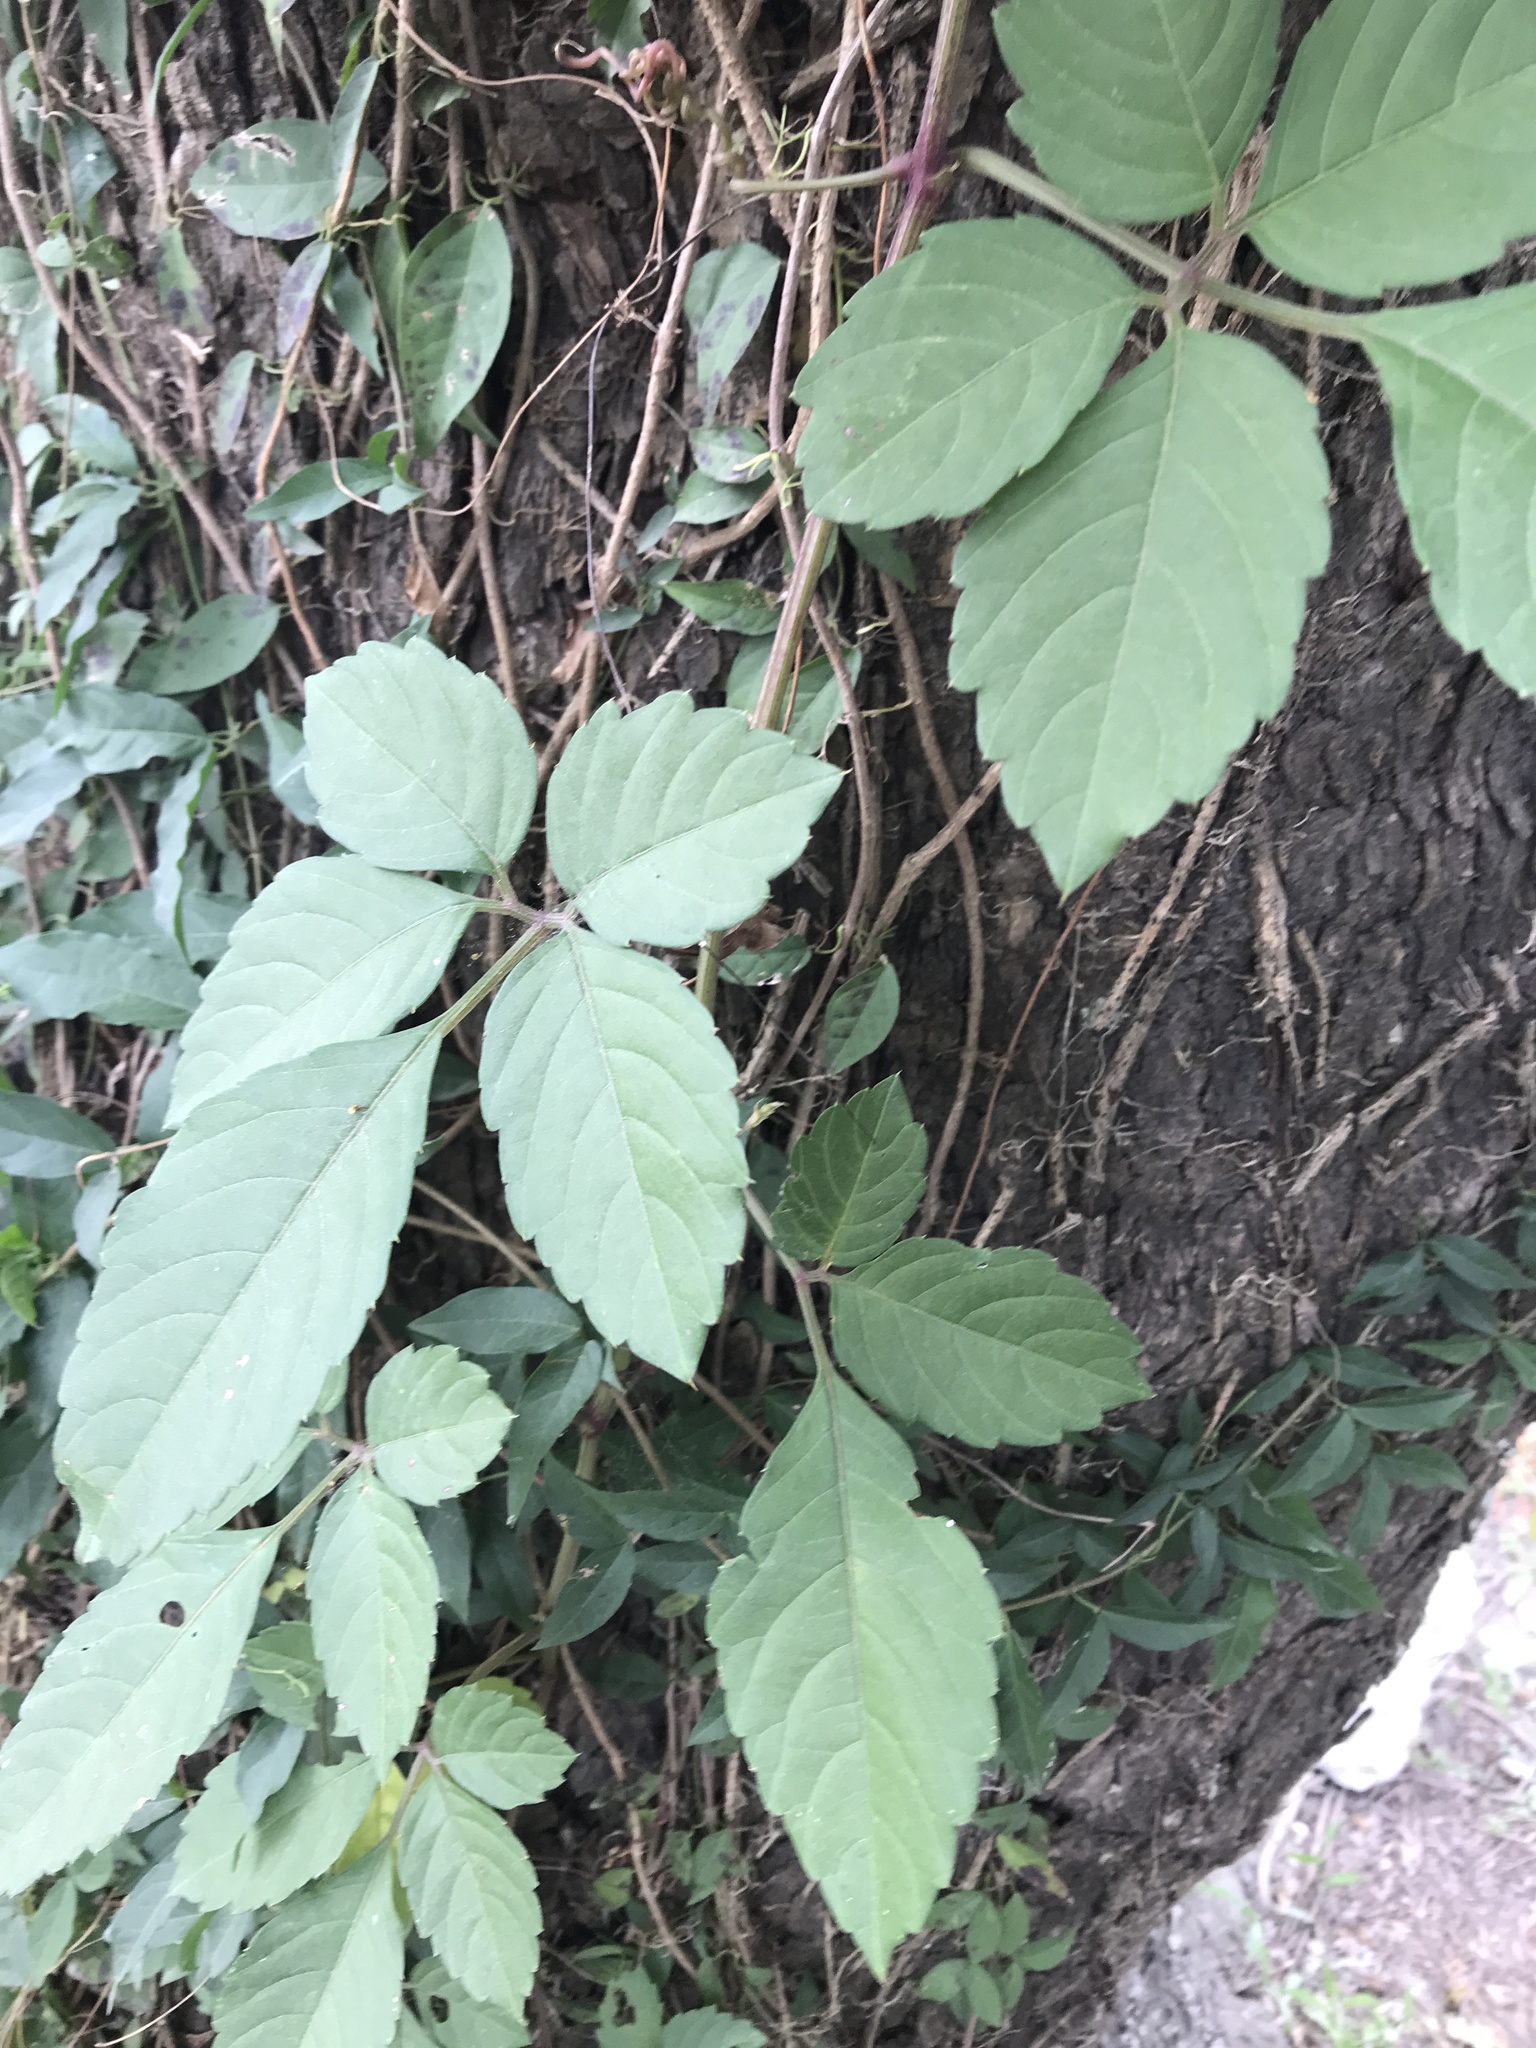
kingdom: Plantae
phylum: Tracheophyta
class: Magnoliopsida
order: Vitales
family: Vitaceae
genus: Causonis
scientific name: Causonis japonica
